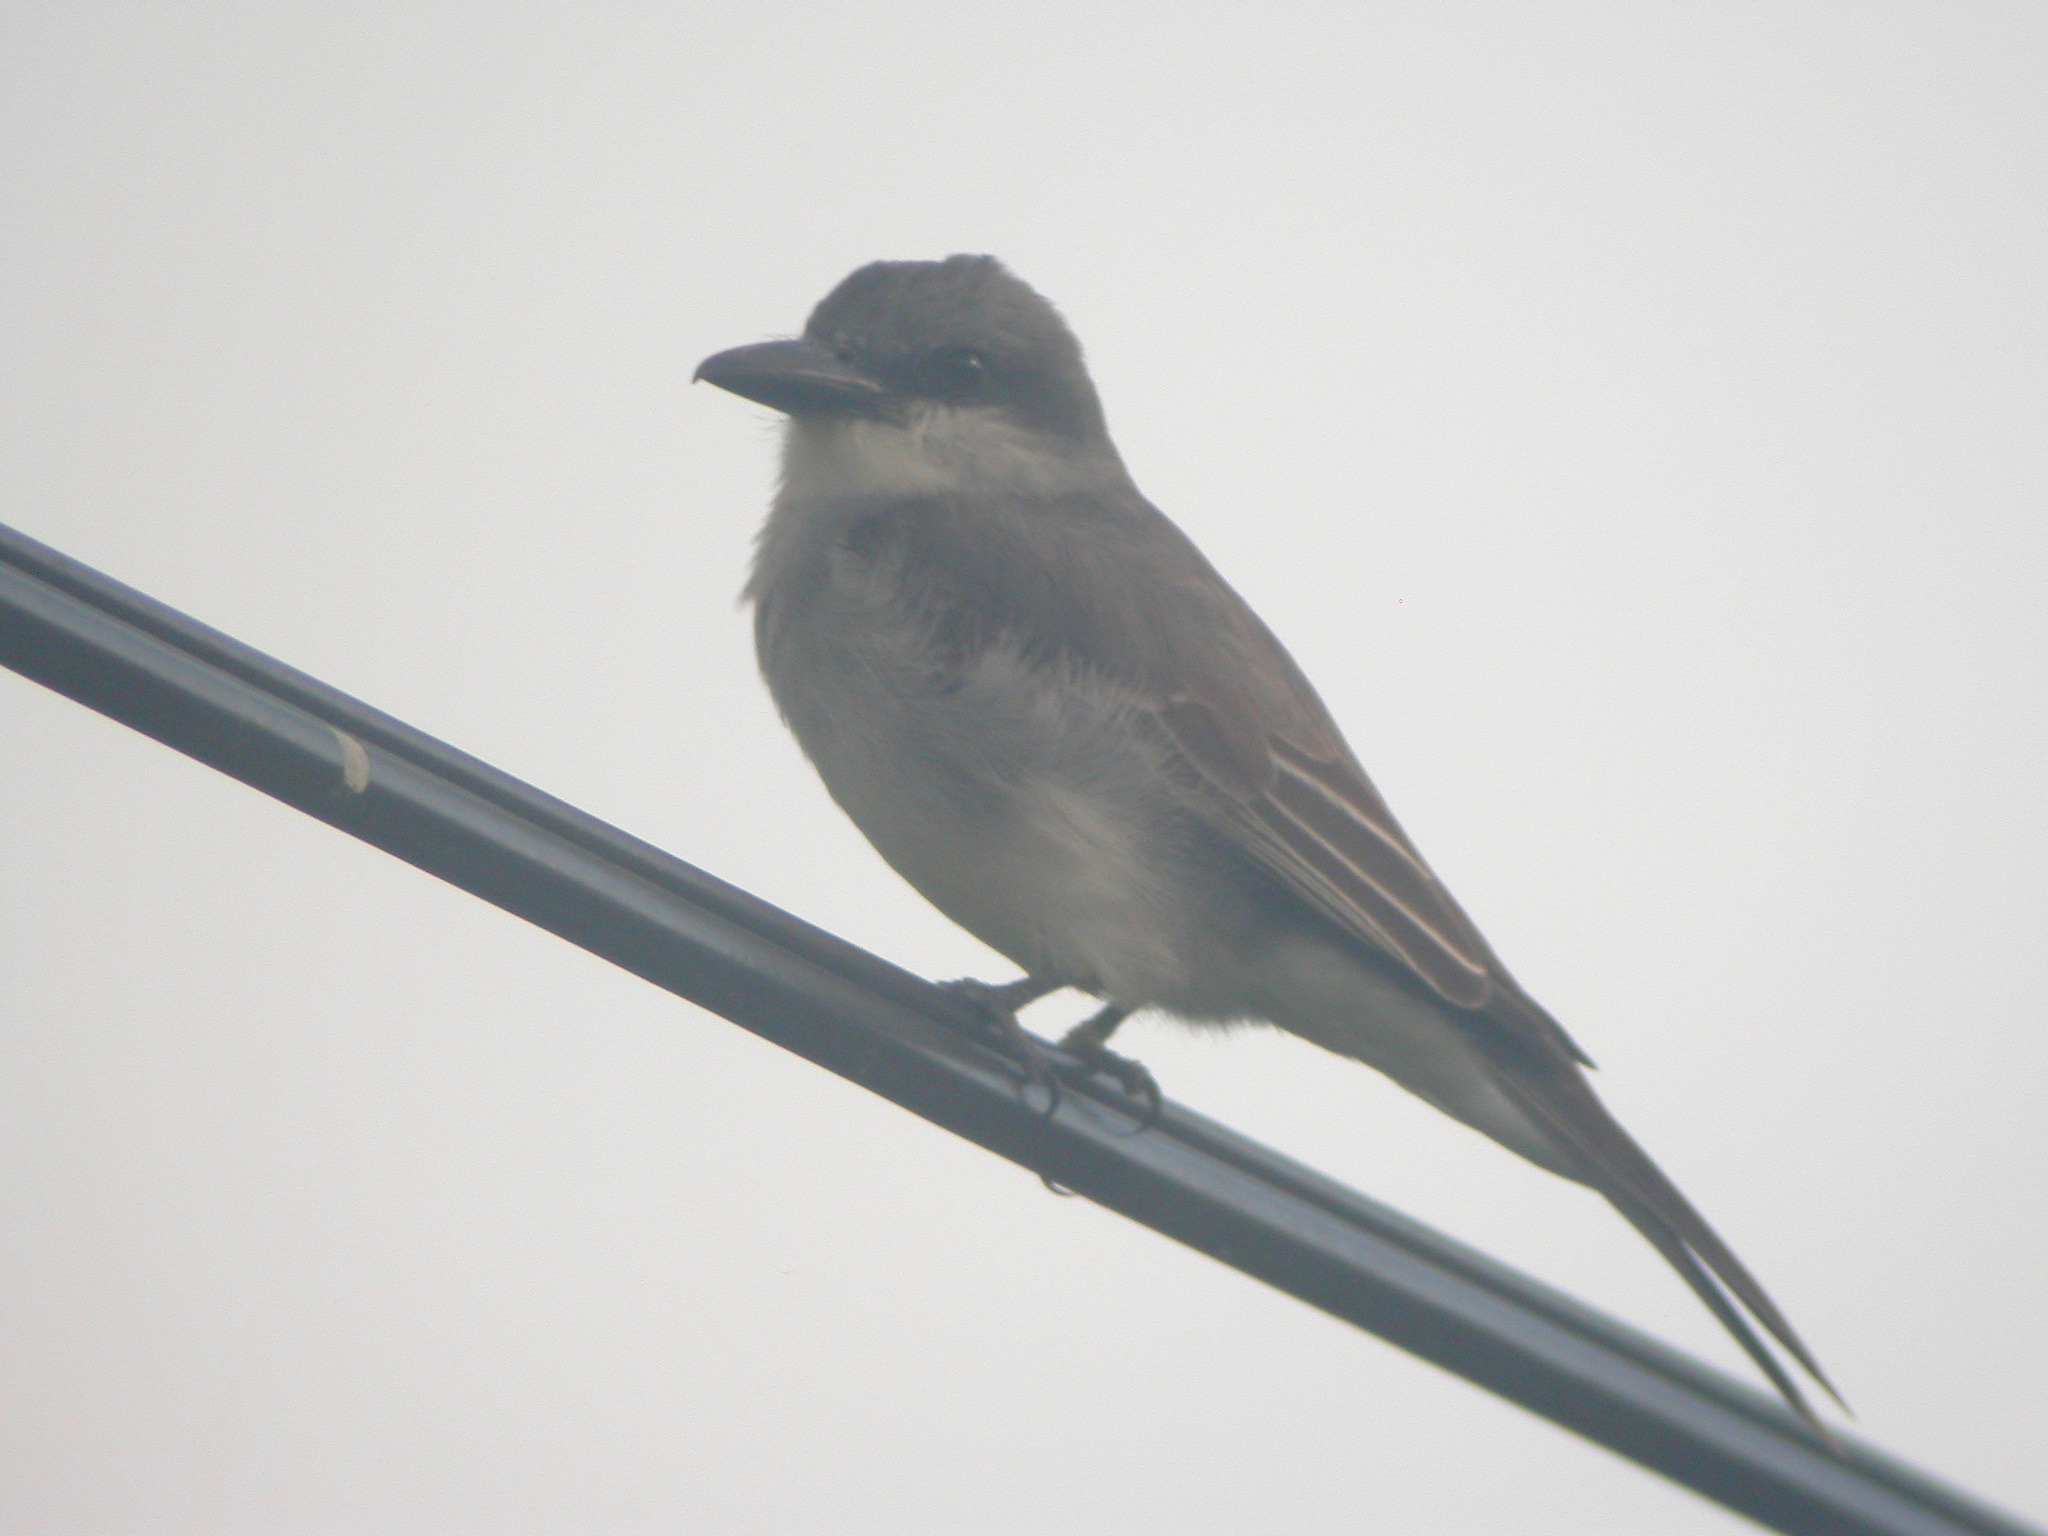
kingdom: Animalia
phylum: Chordata
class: Aves
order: Passeriformes
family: Tyrannidae
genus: Tyrannus
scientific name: Tyrannus dominicensis
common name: Gray kingbird
